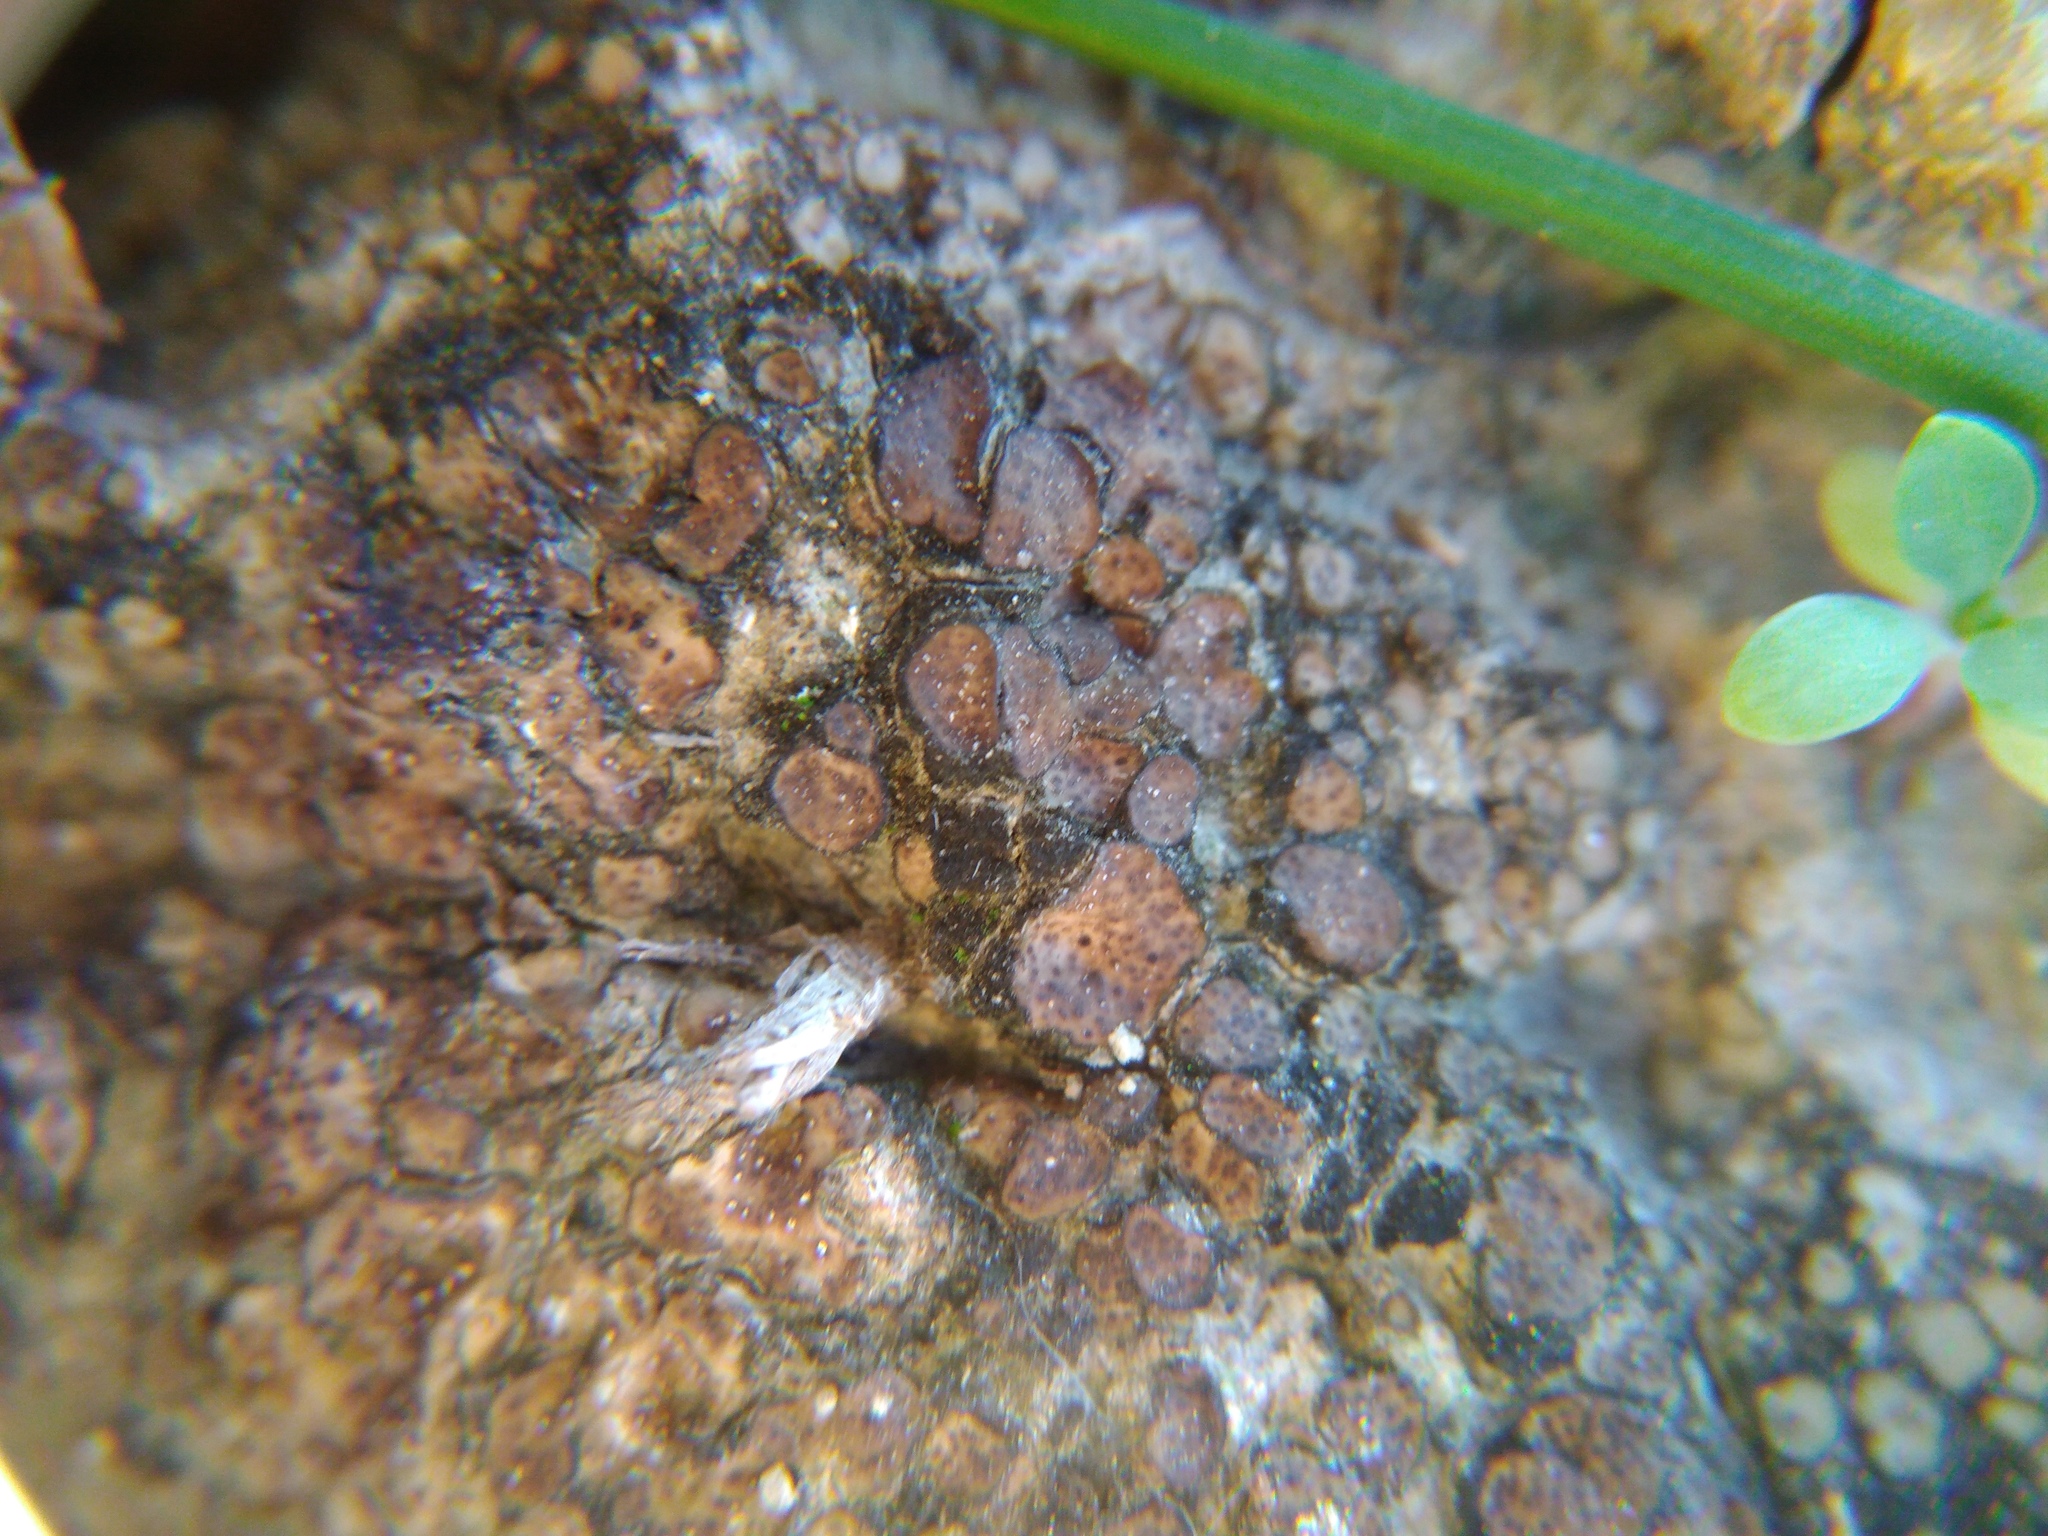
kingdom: Fungi
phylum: Ascomycota
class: Eurotiomycetes
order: Verrucariales
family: Verrucariaceae
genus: Catapyrenium
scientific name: Catapyrenium squamulosum
